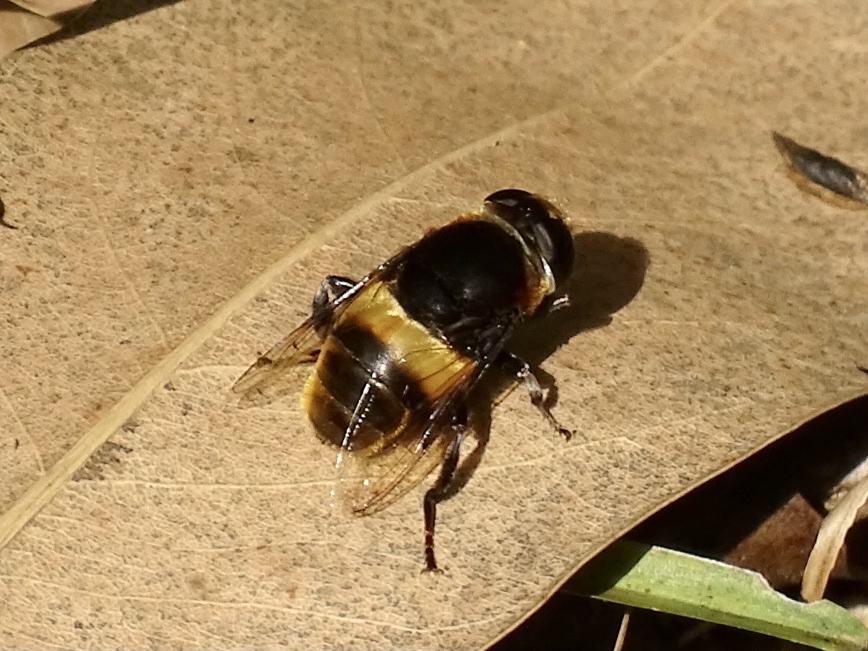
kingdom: Animalia
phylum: Arthropoda
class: Insecta
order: Diptera
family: Syrphidae
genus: Phytomia
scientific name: Phytomia zonata
